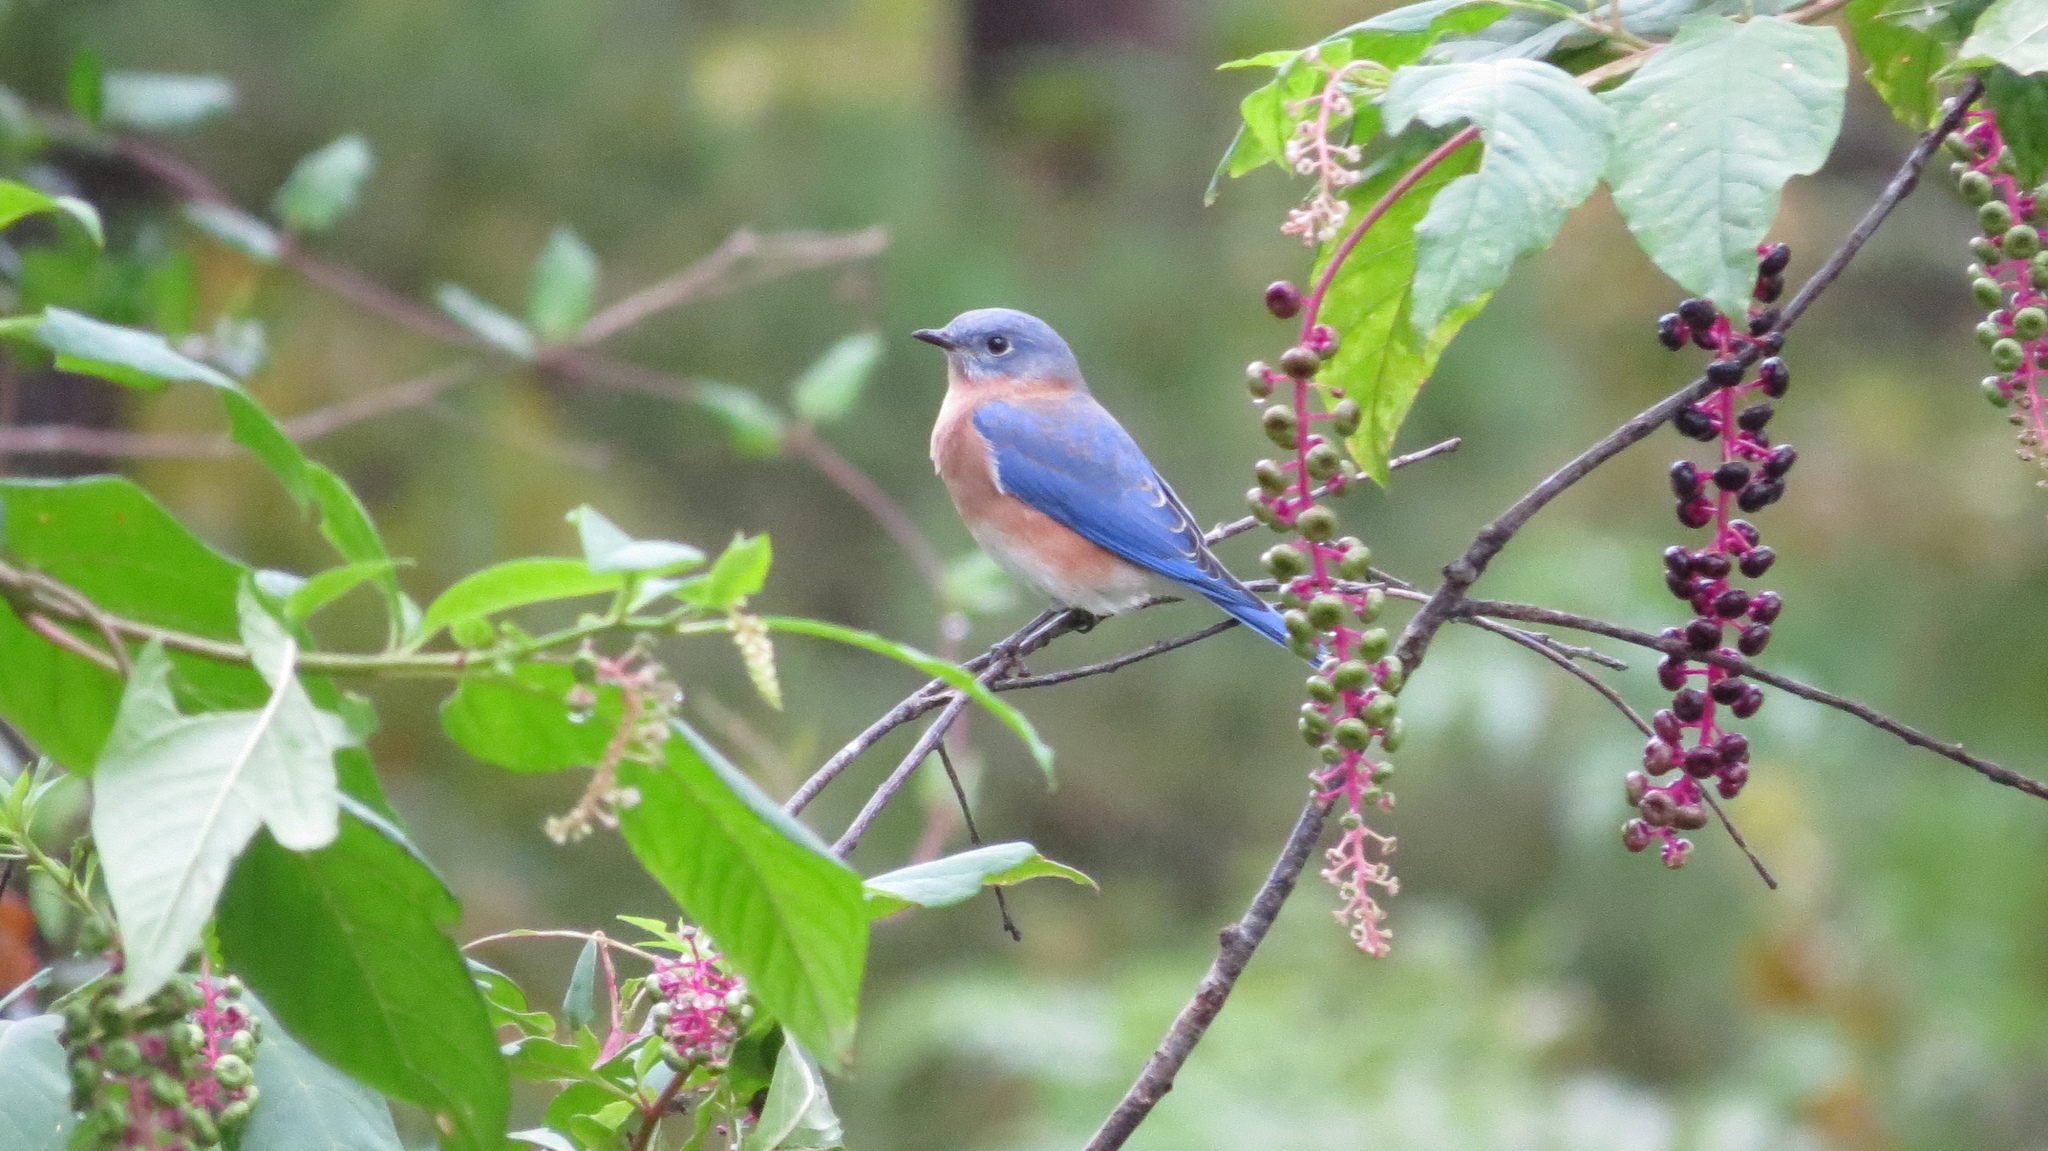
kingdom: Animalia
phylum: Chordata
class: Aves
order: Passeriformes
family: Turdidae
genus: Sialia
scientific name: Sialia sialis
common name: Eastern bluebird
